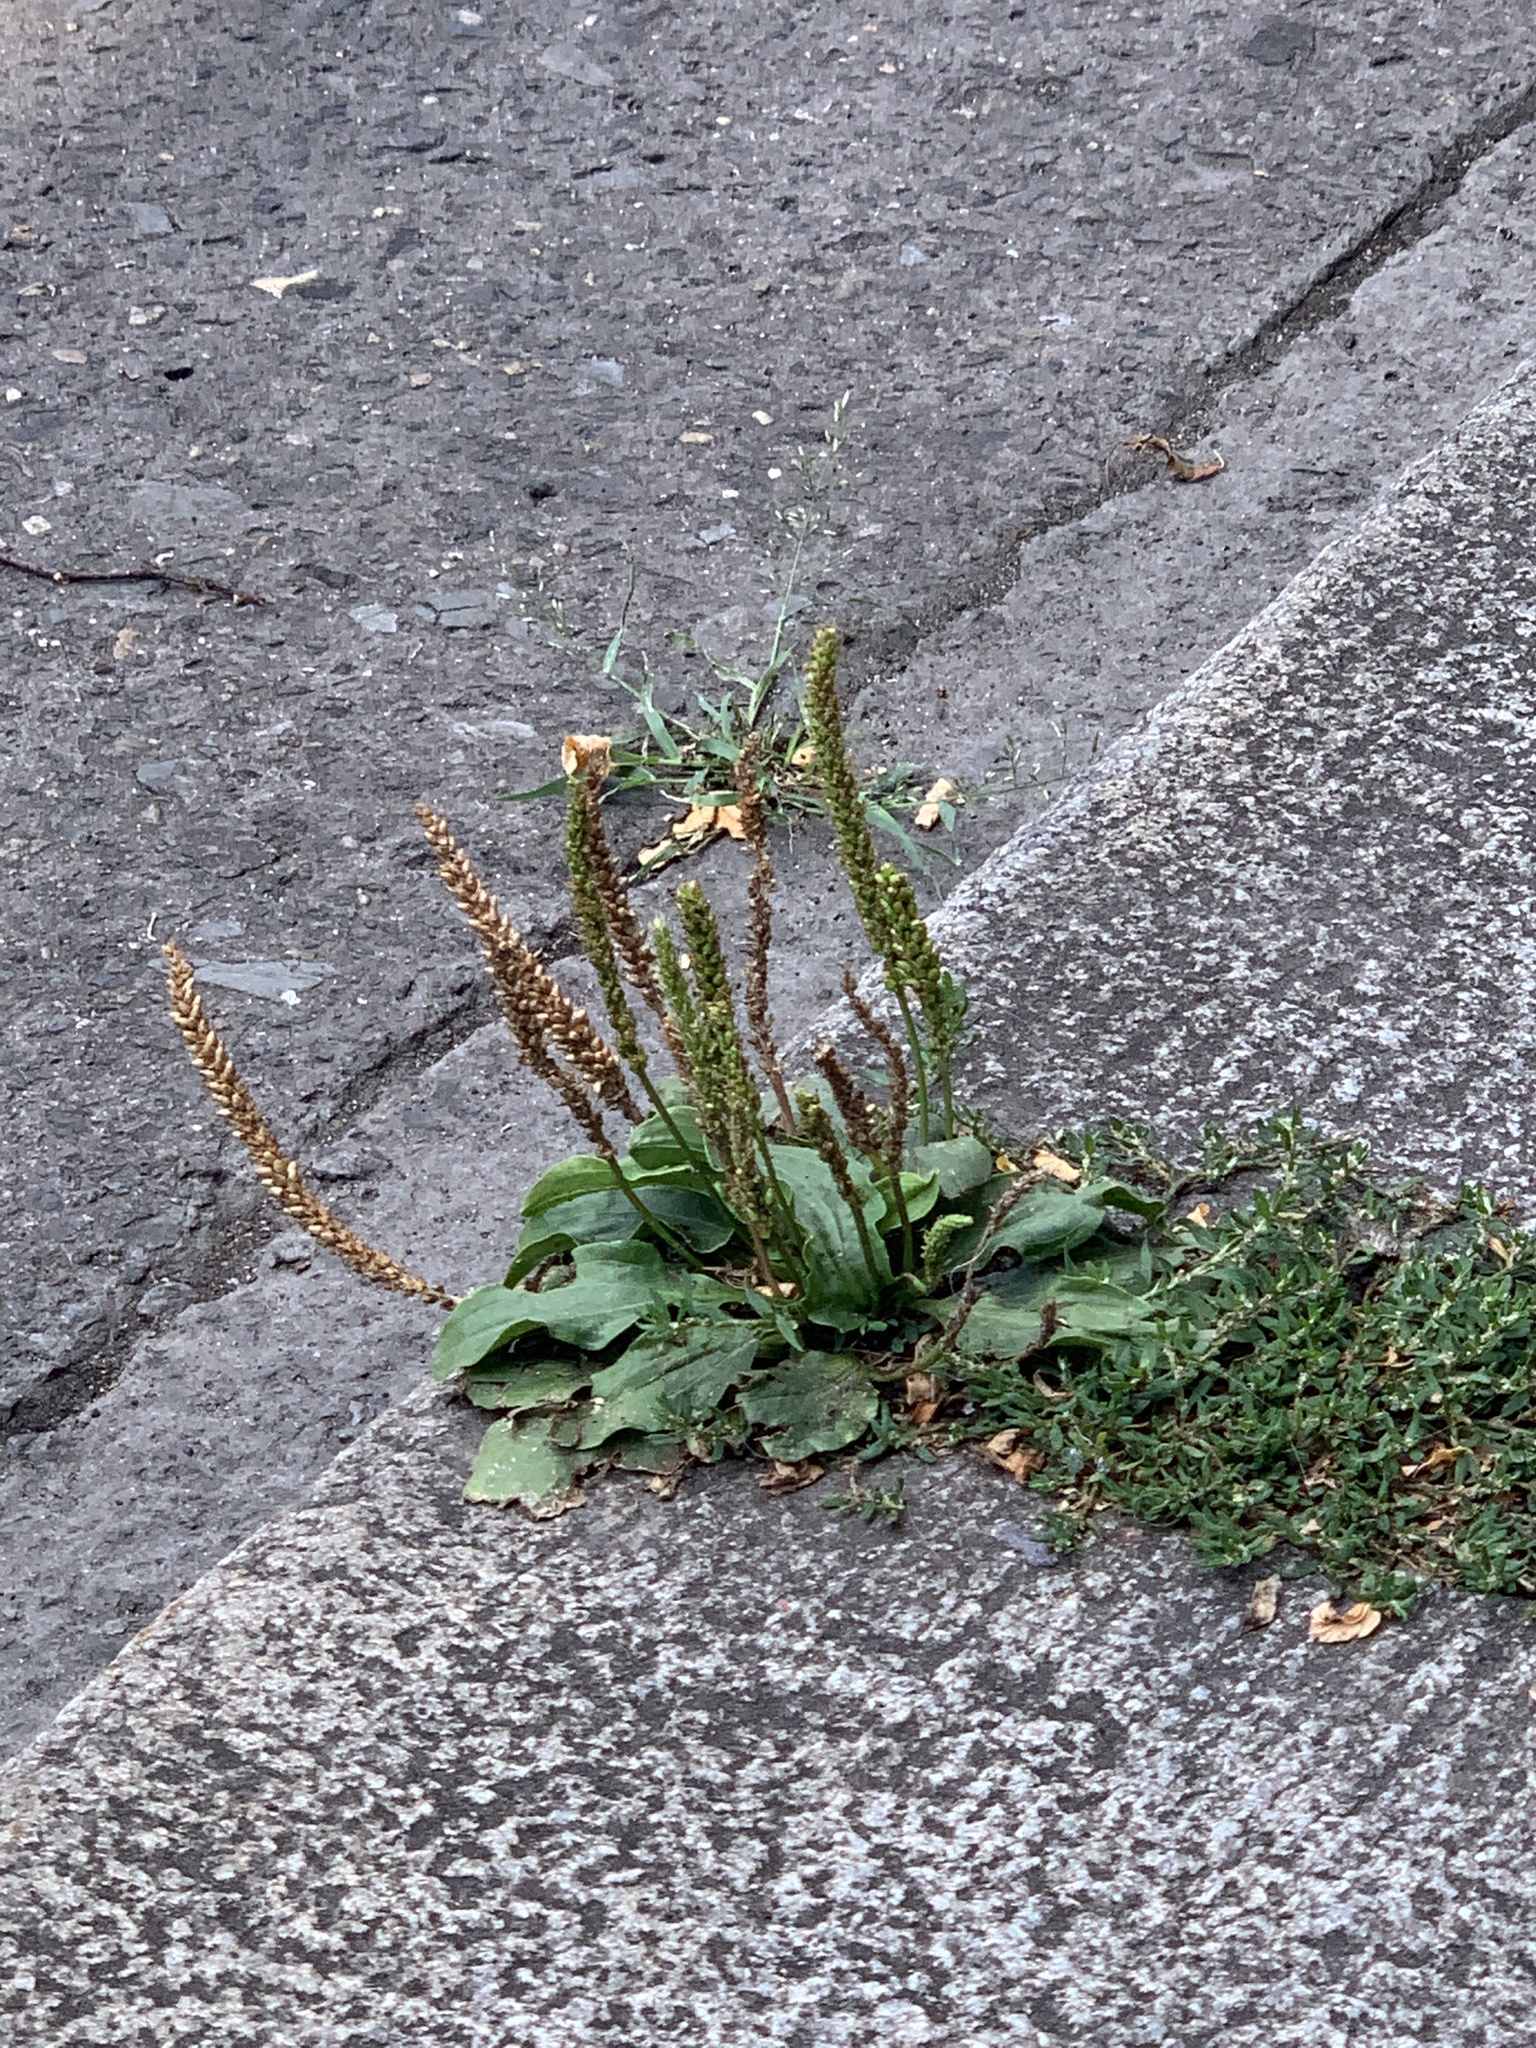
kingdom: Plantae
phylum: Tracheophyta
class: Magnoliopsida
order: Lamiales
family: Plantaginaceae
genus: Plantago
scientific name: Plantago major
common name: Common plantain
